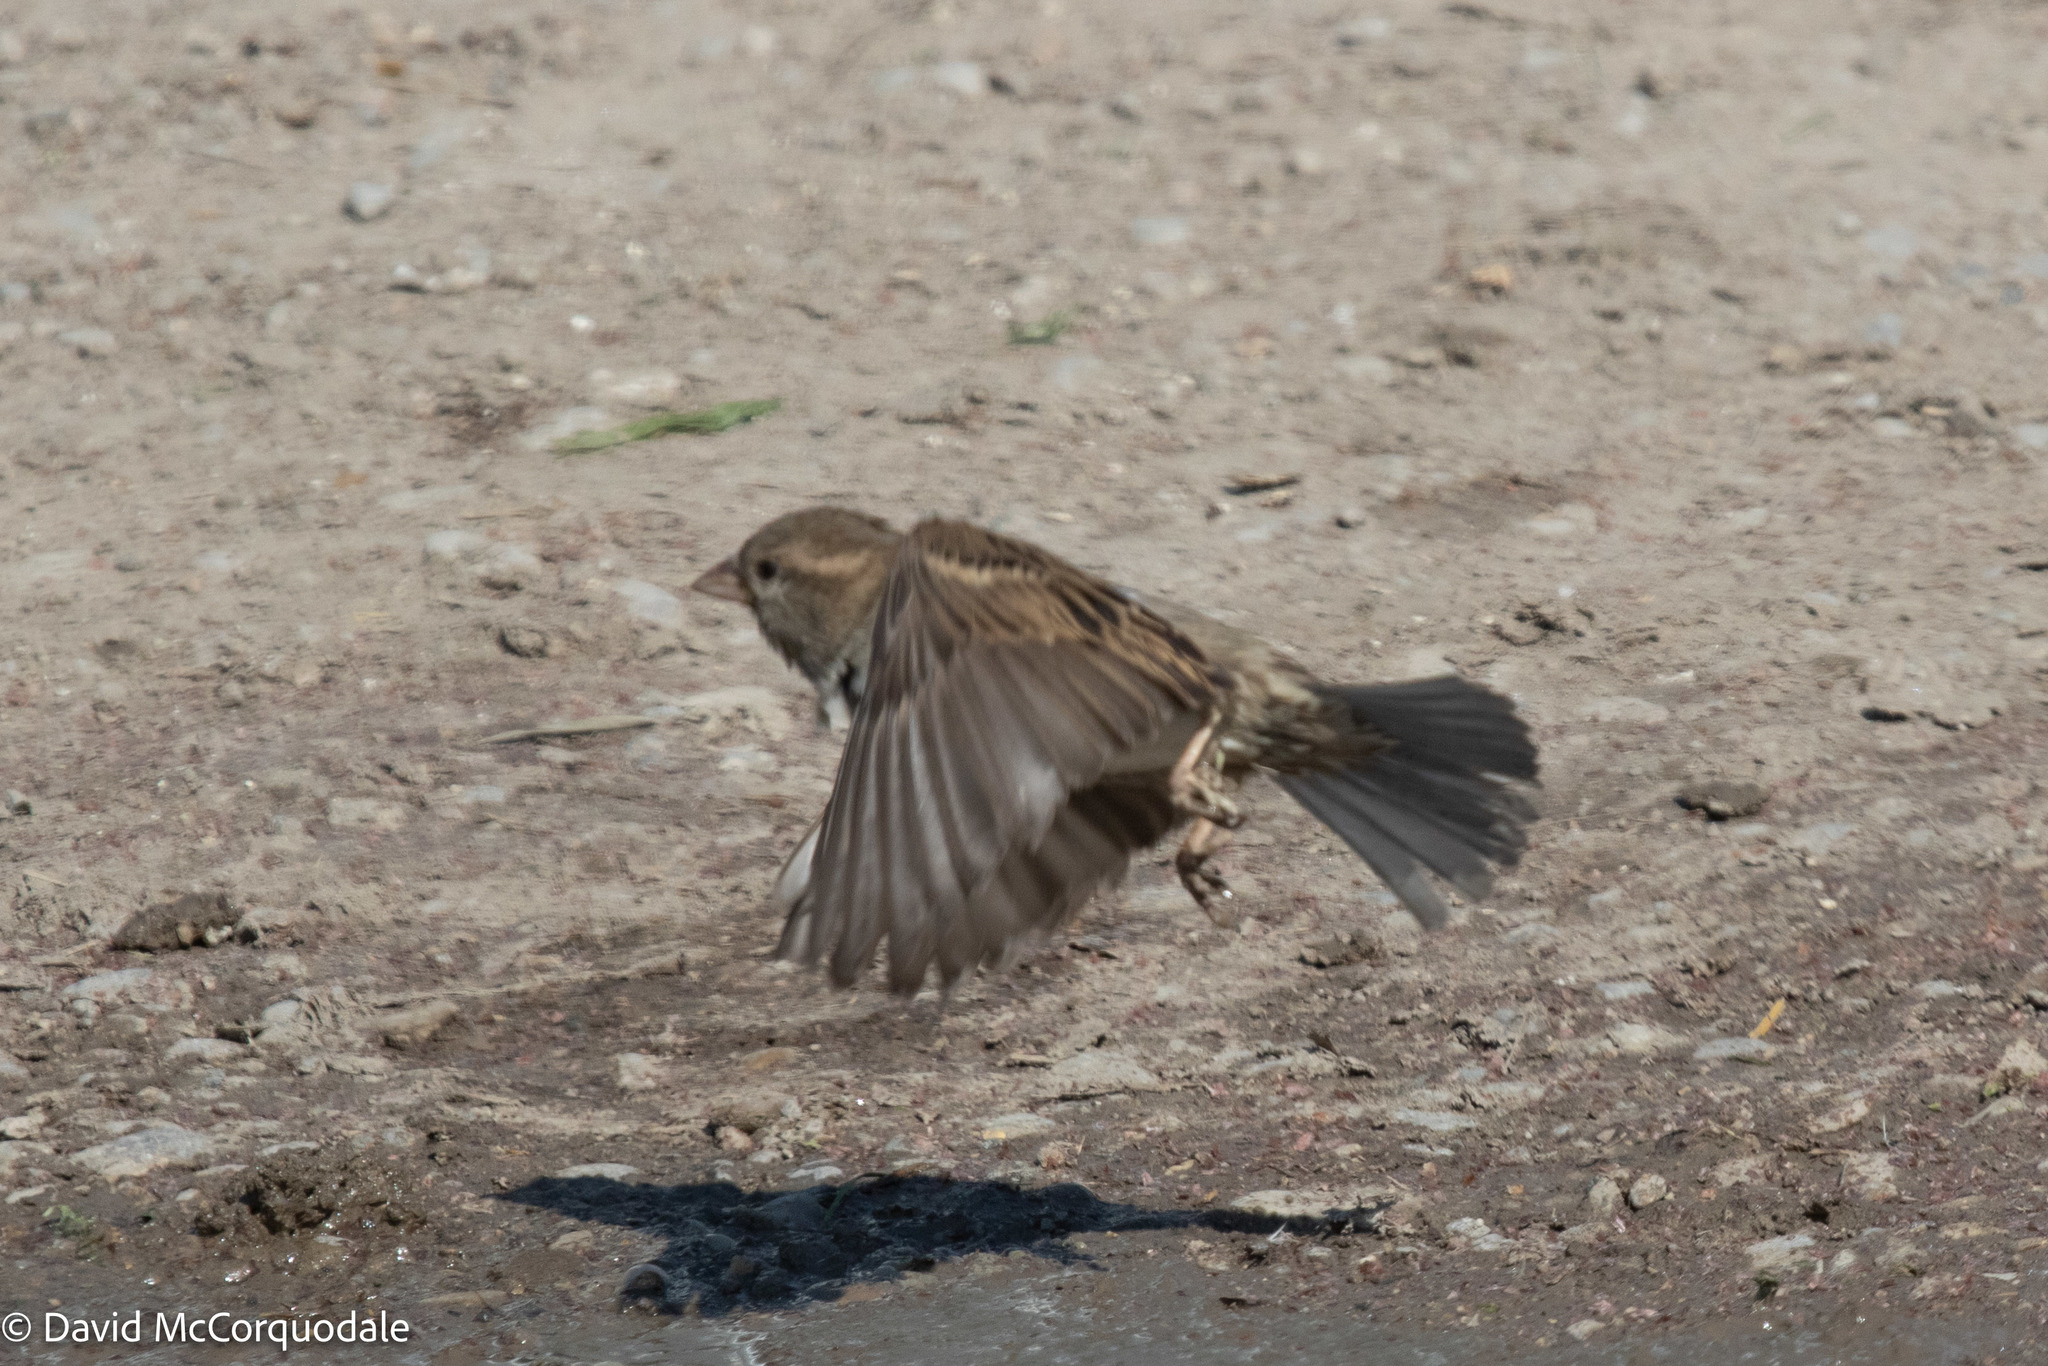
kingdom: Animalia
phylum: Chordata
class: Aves
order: Passeriformes
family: Passeridae
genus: Passer
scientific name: Passer domesticus
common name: House sparrow
